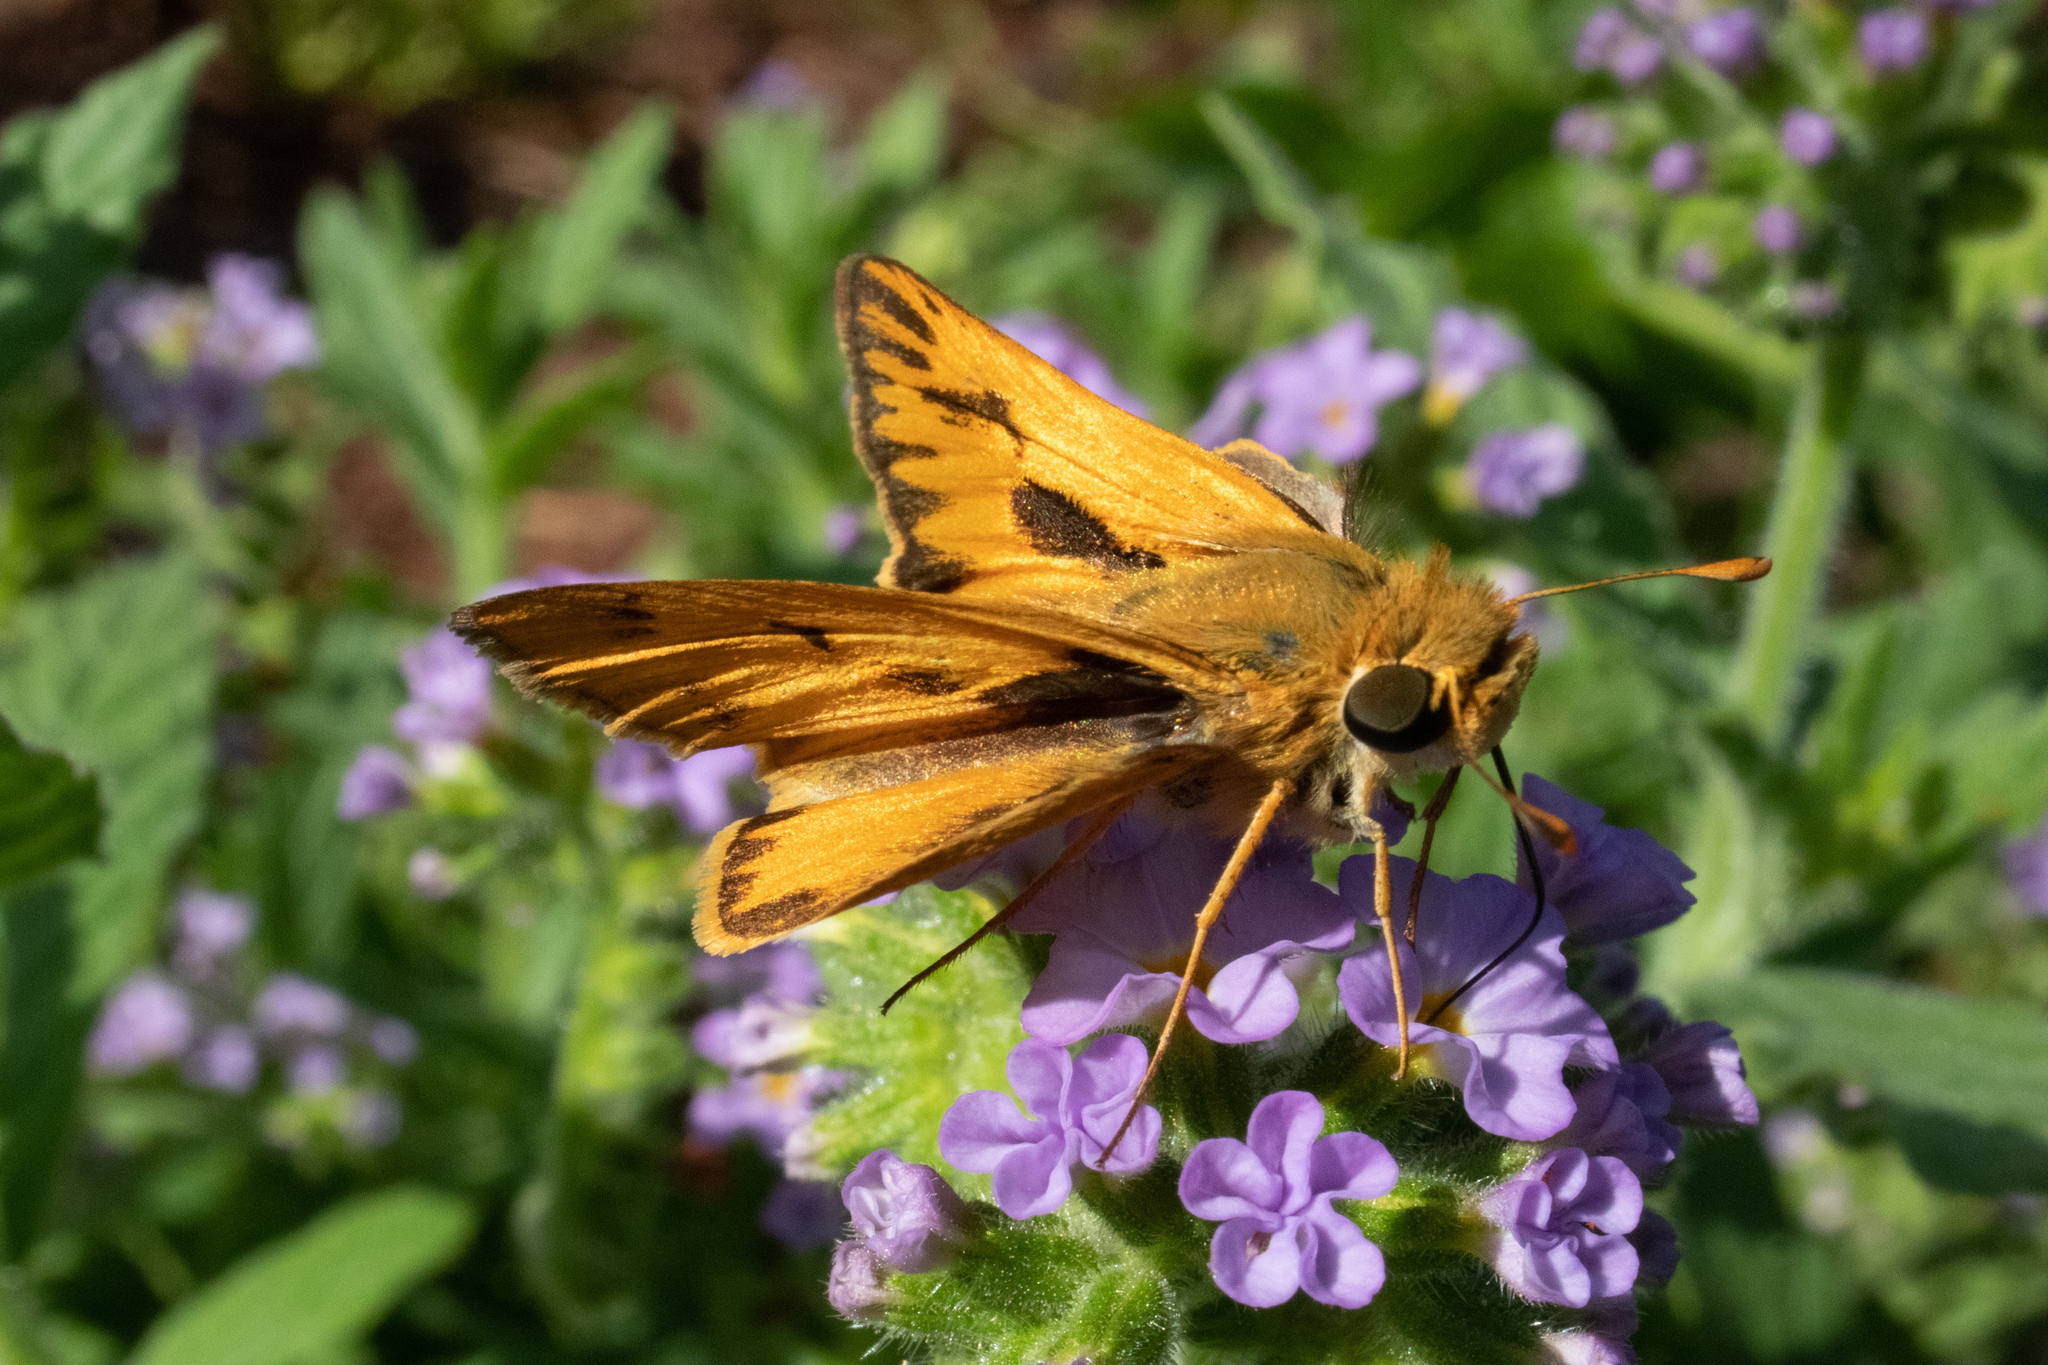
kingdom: Animalia
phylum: Arthropoda
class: Insecta
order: Lepidoptera
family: Hesperiidae
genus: Hylephila
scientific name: Hylephila phyleus
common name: Fiery skipper
